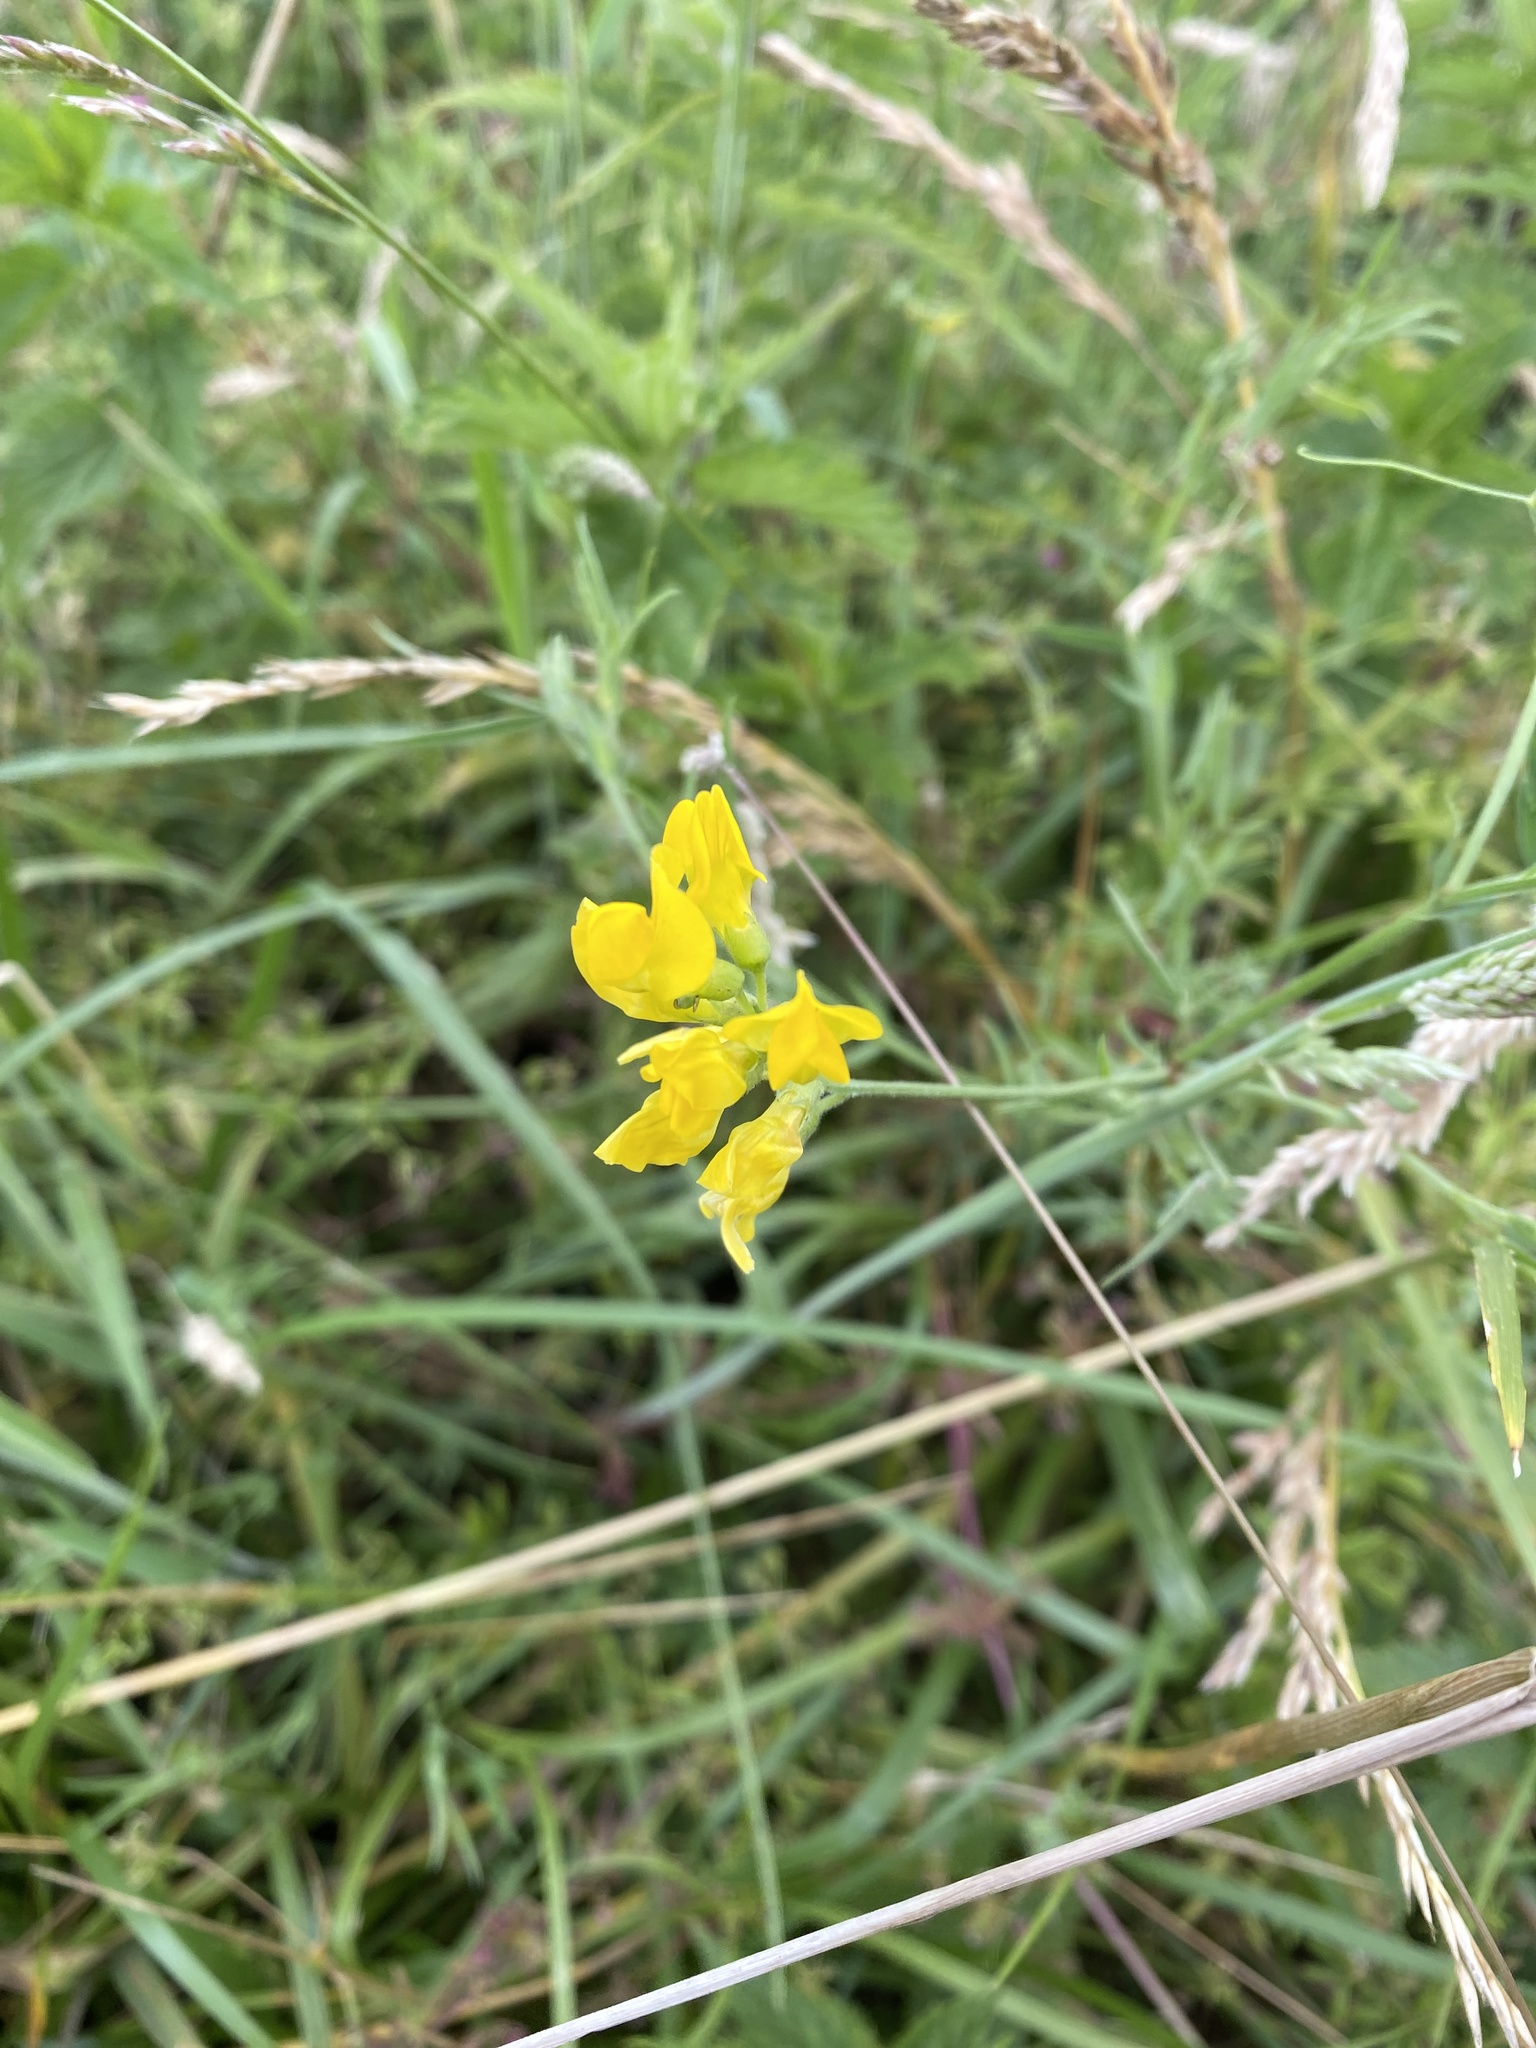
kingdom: Plantae
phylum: Tracheophyta
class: Magnoliopsida
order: Fabales
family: Fabaceae
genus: Lathyrus
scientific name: Lathyrus pratensis
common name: Meadow vetchling
